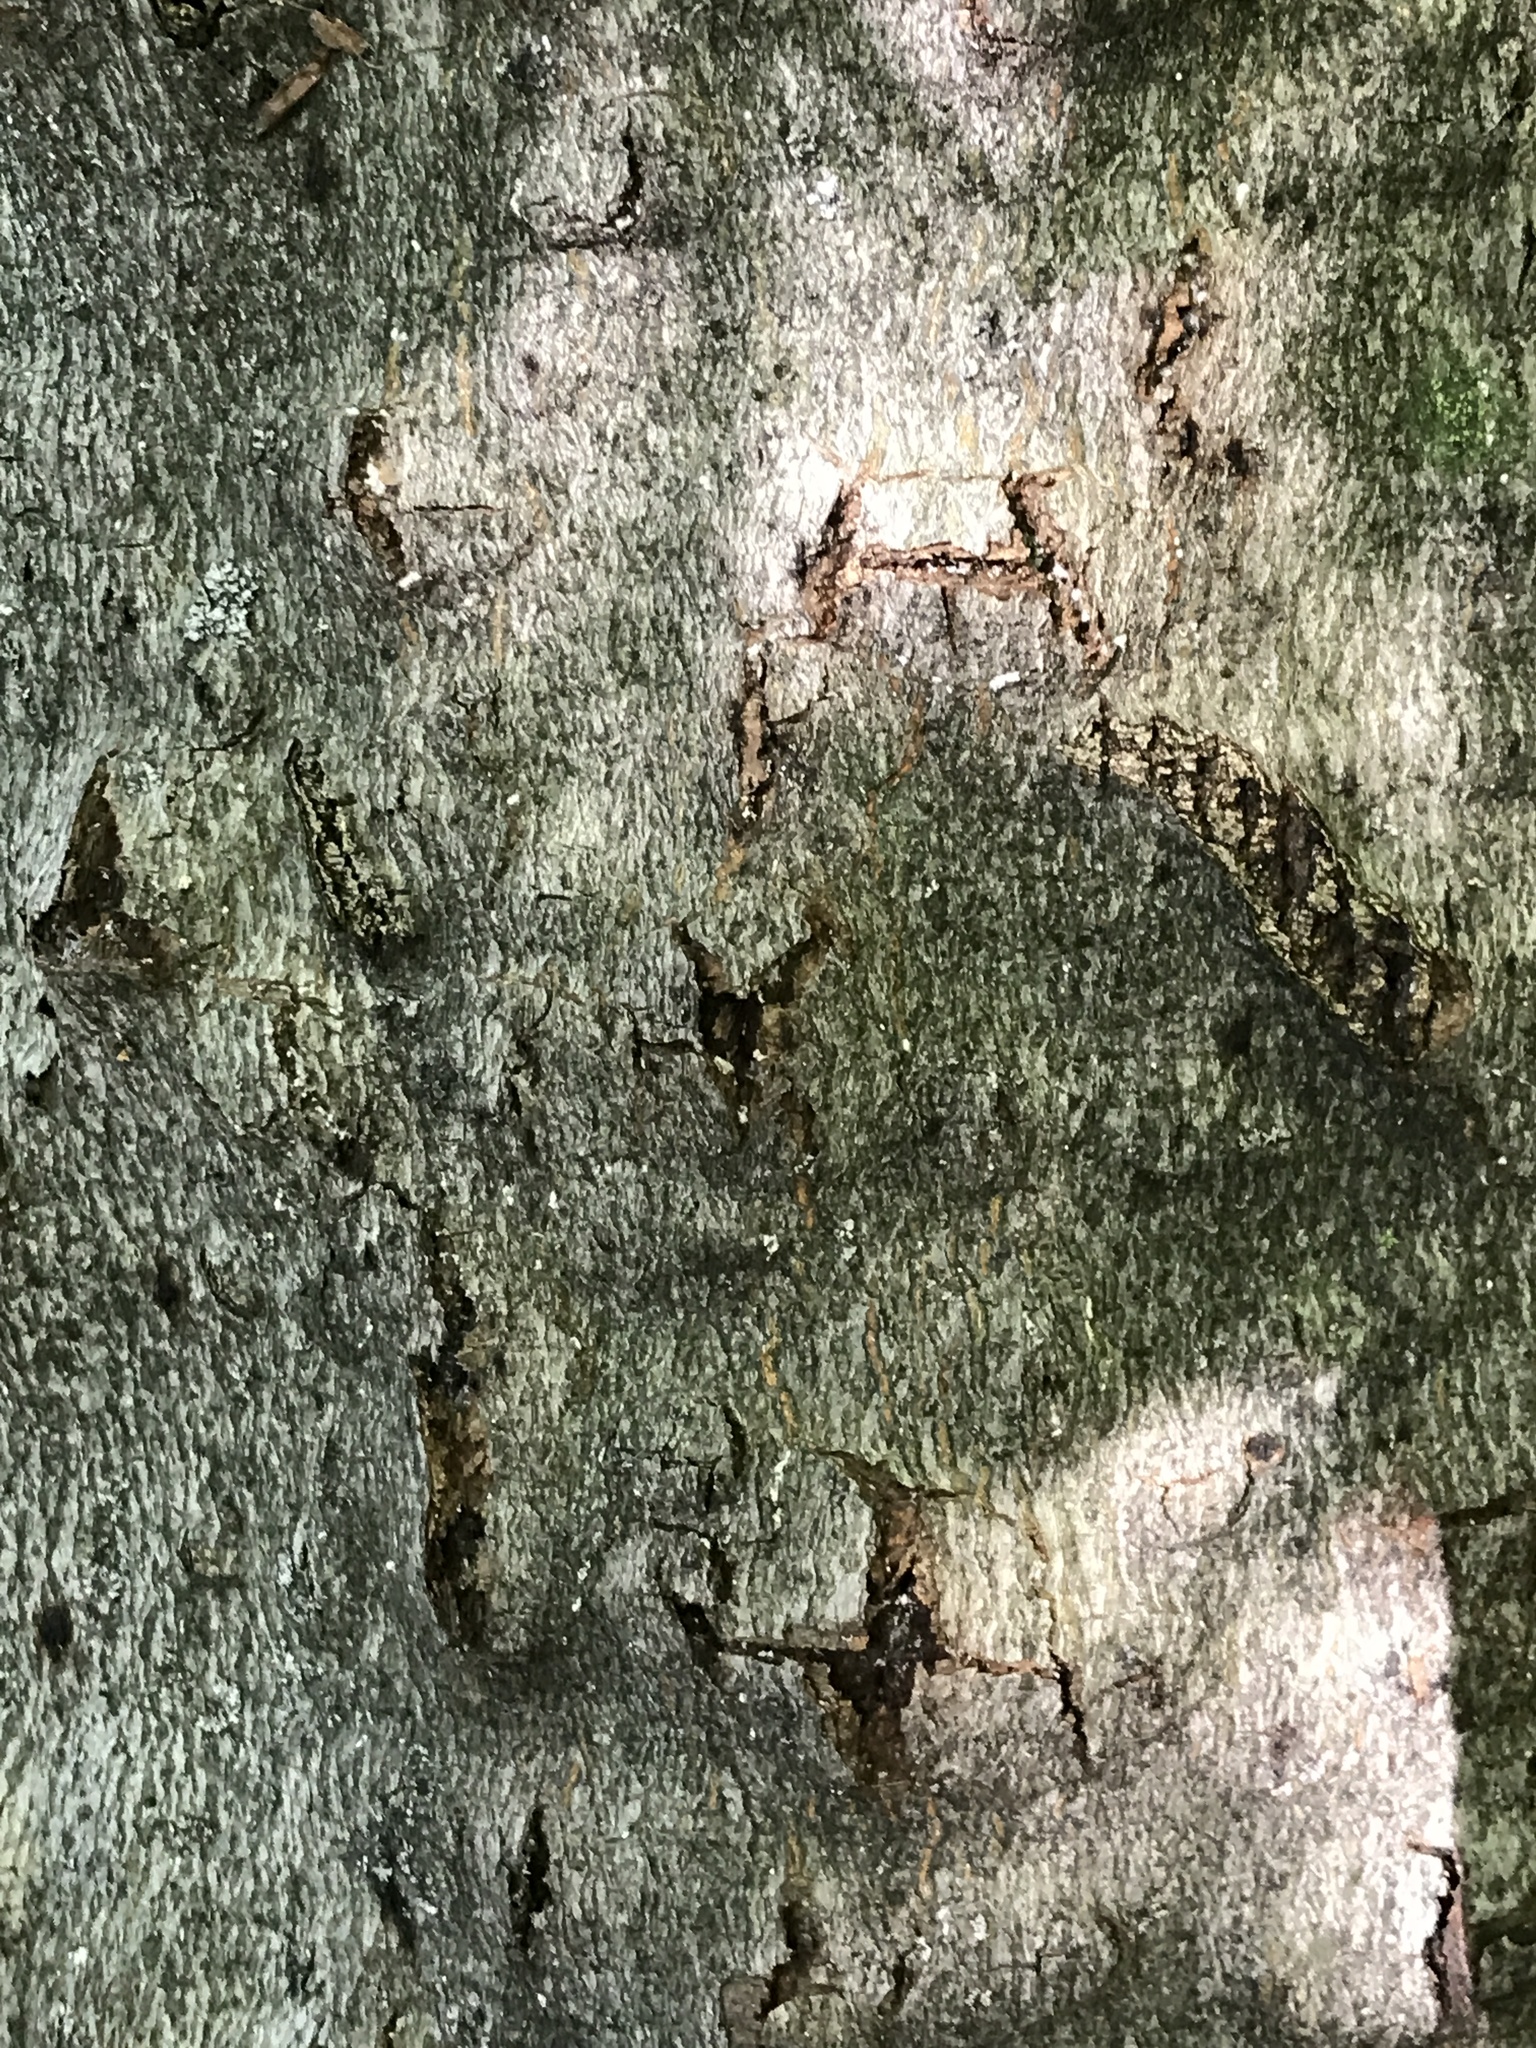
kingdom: Animalia
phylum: Arthropoda
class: Insecta
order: Hemiptera
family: Eriococcidae
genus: Cryptococcus
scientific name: Cryptococcus fagisuga
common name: Beech scale
